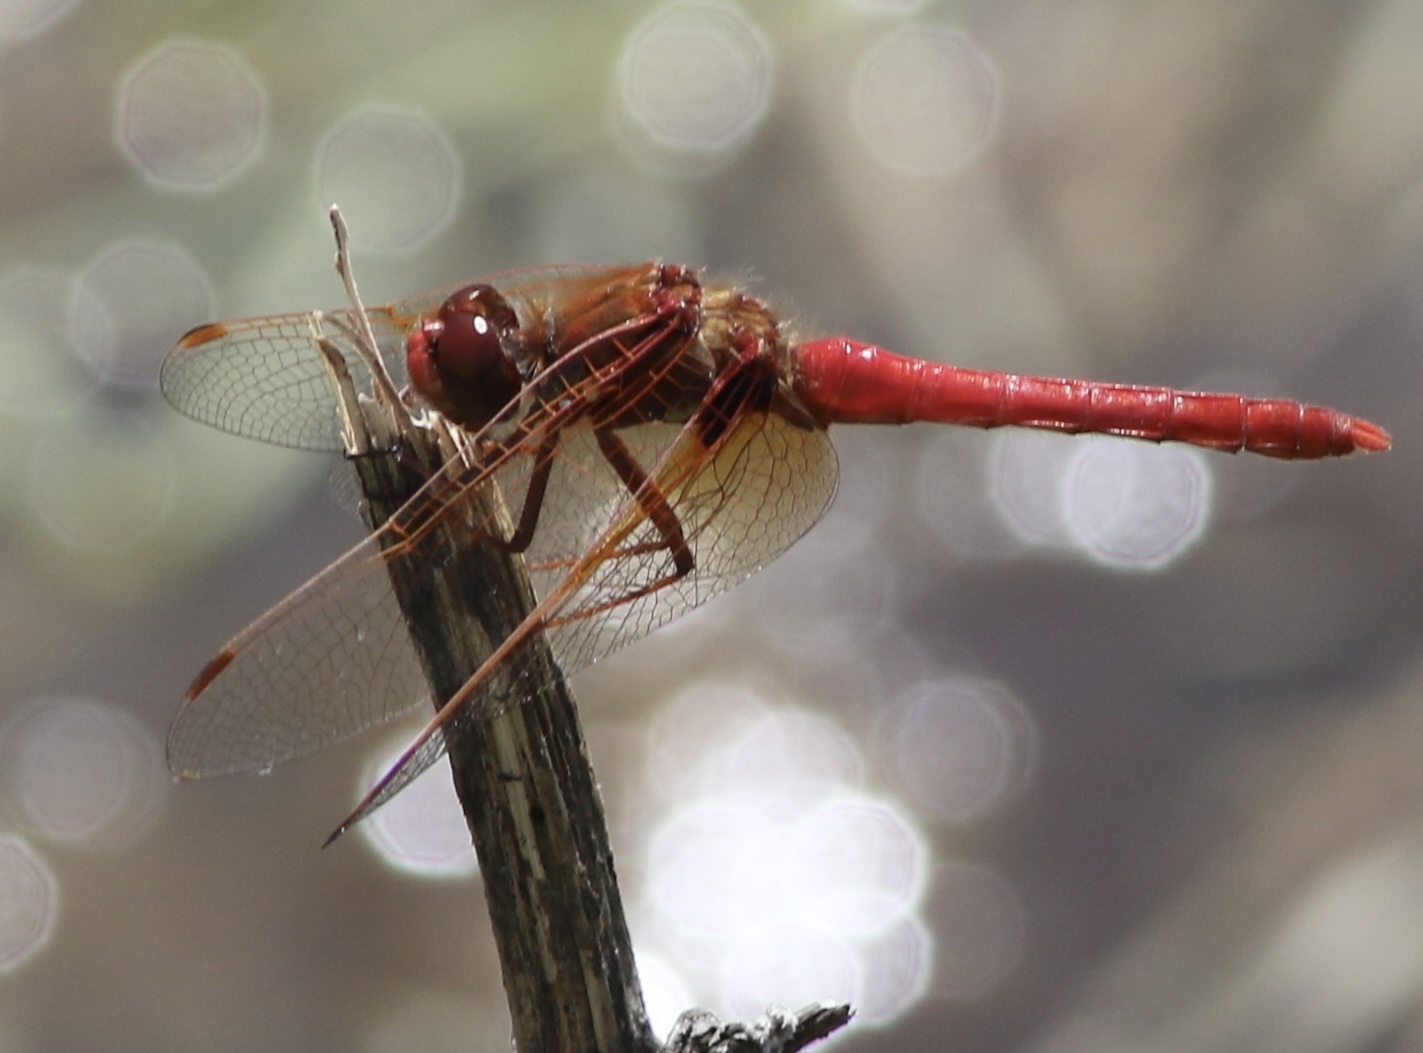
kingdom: Animalia
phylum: Arthropoda
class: Insecta
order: Odonata
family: Libellulidae
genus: Sympetrum
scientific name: Sympetrum illotum
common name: Cardinal meadowhawk
